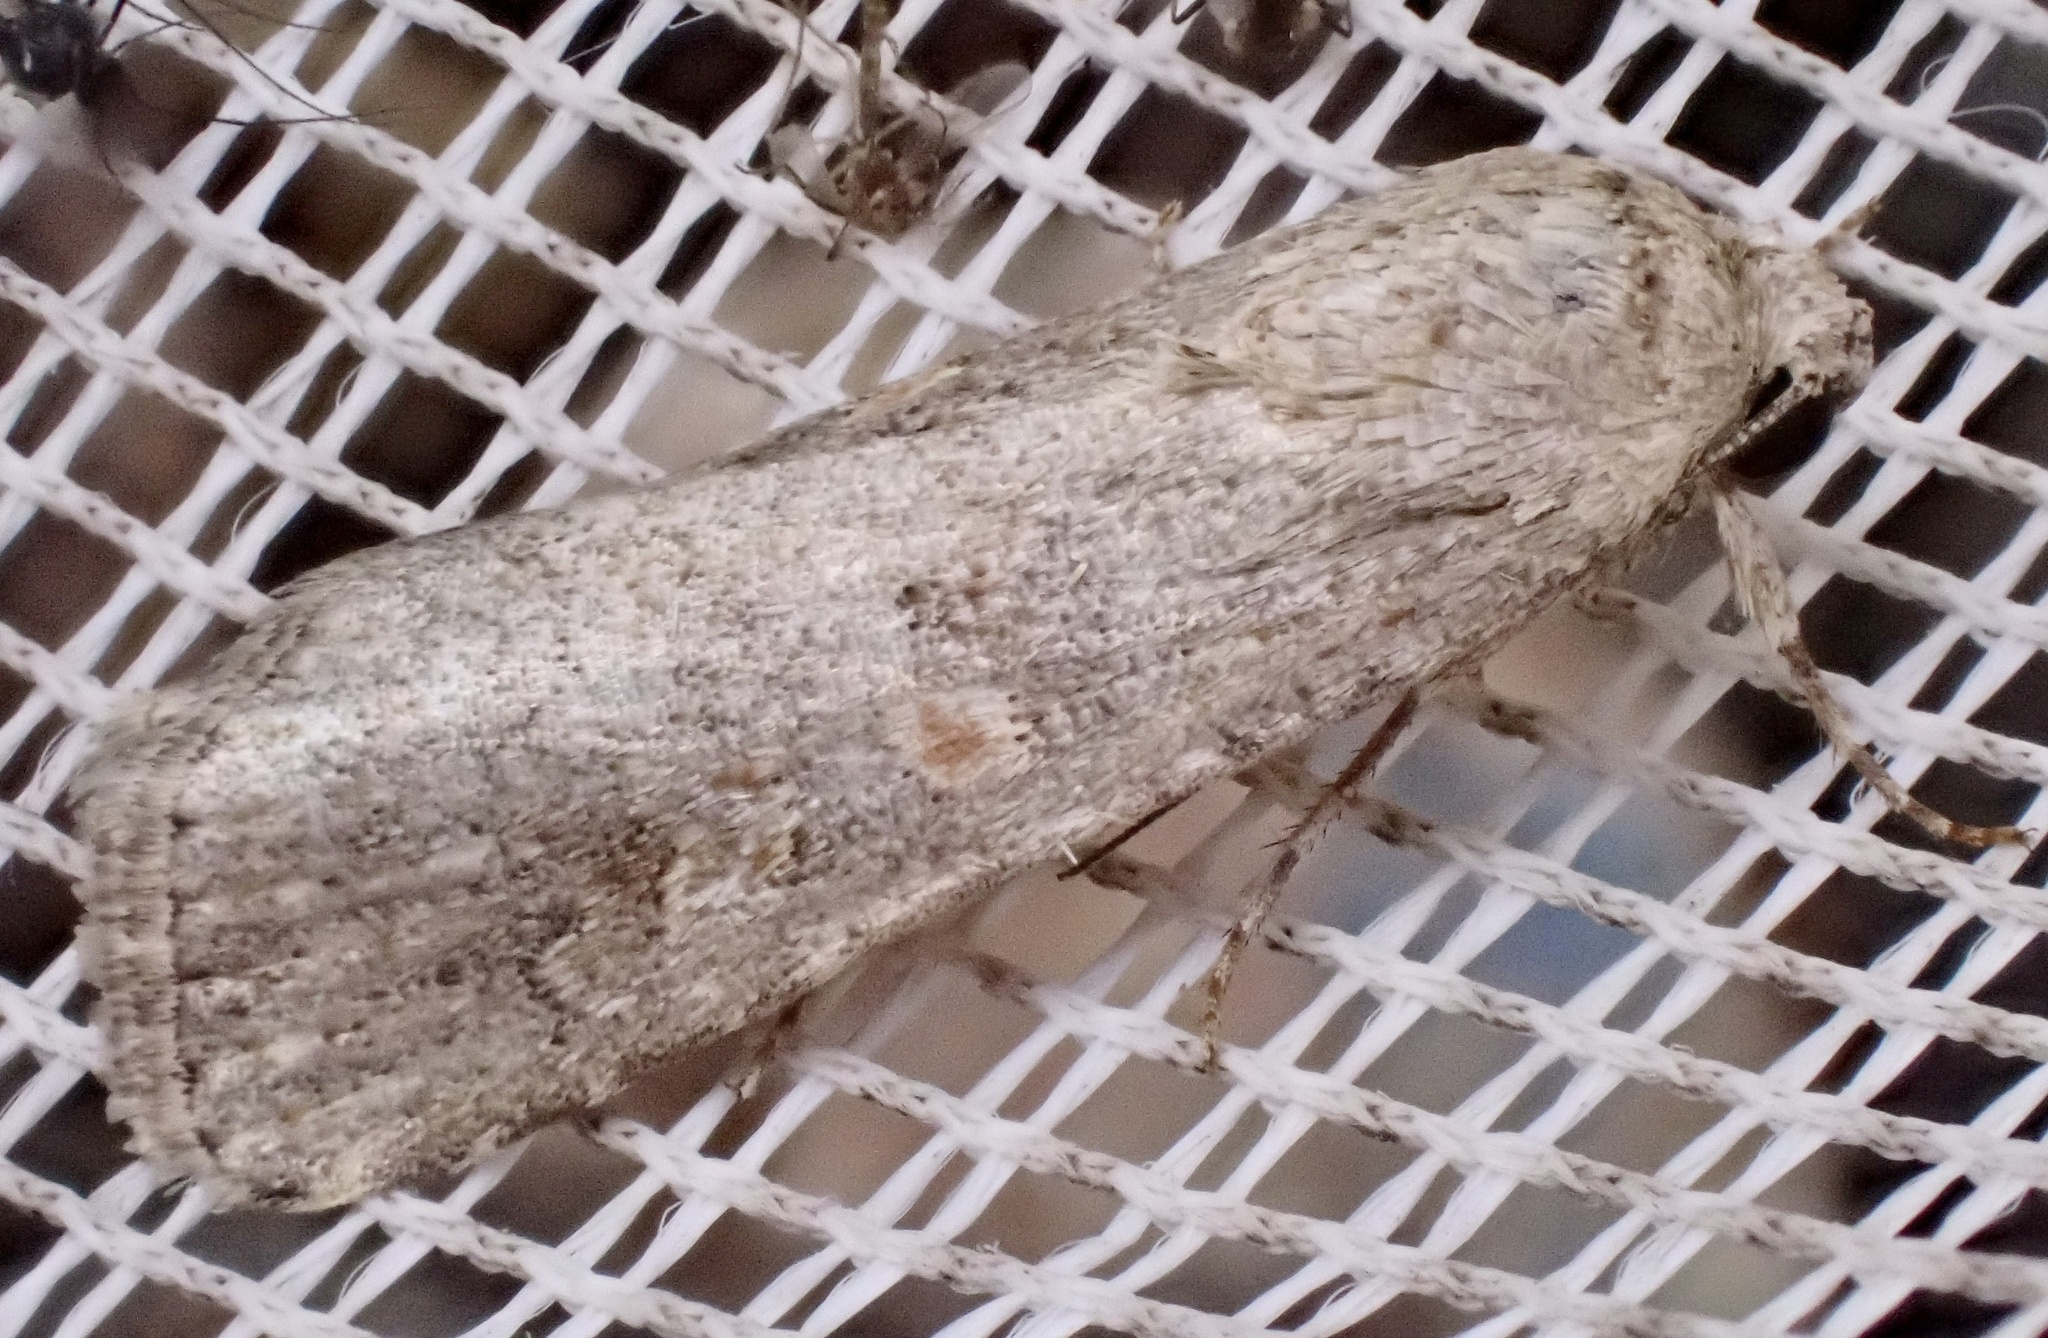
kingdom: Animalia
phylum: Arthropoda
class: Insecta
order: Lepidoptera
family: Noctuidae
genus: Spodoptera
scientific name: Spodoptera exigua
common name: Beet armyworm
